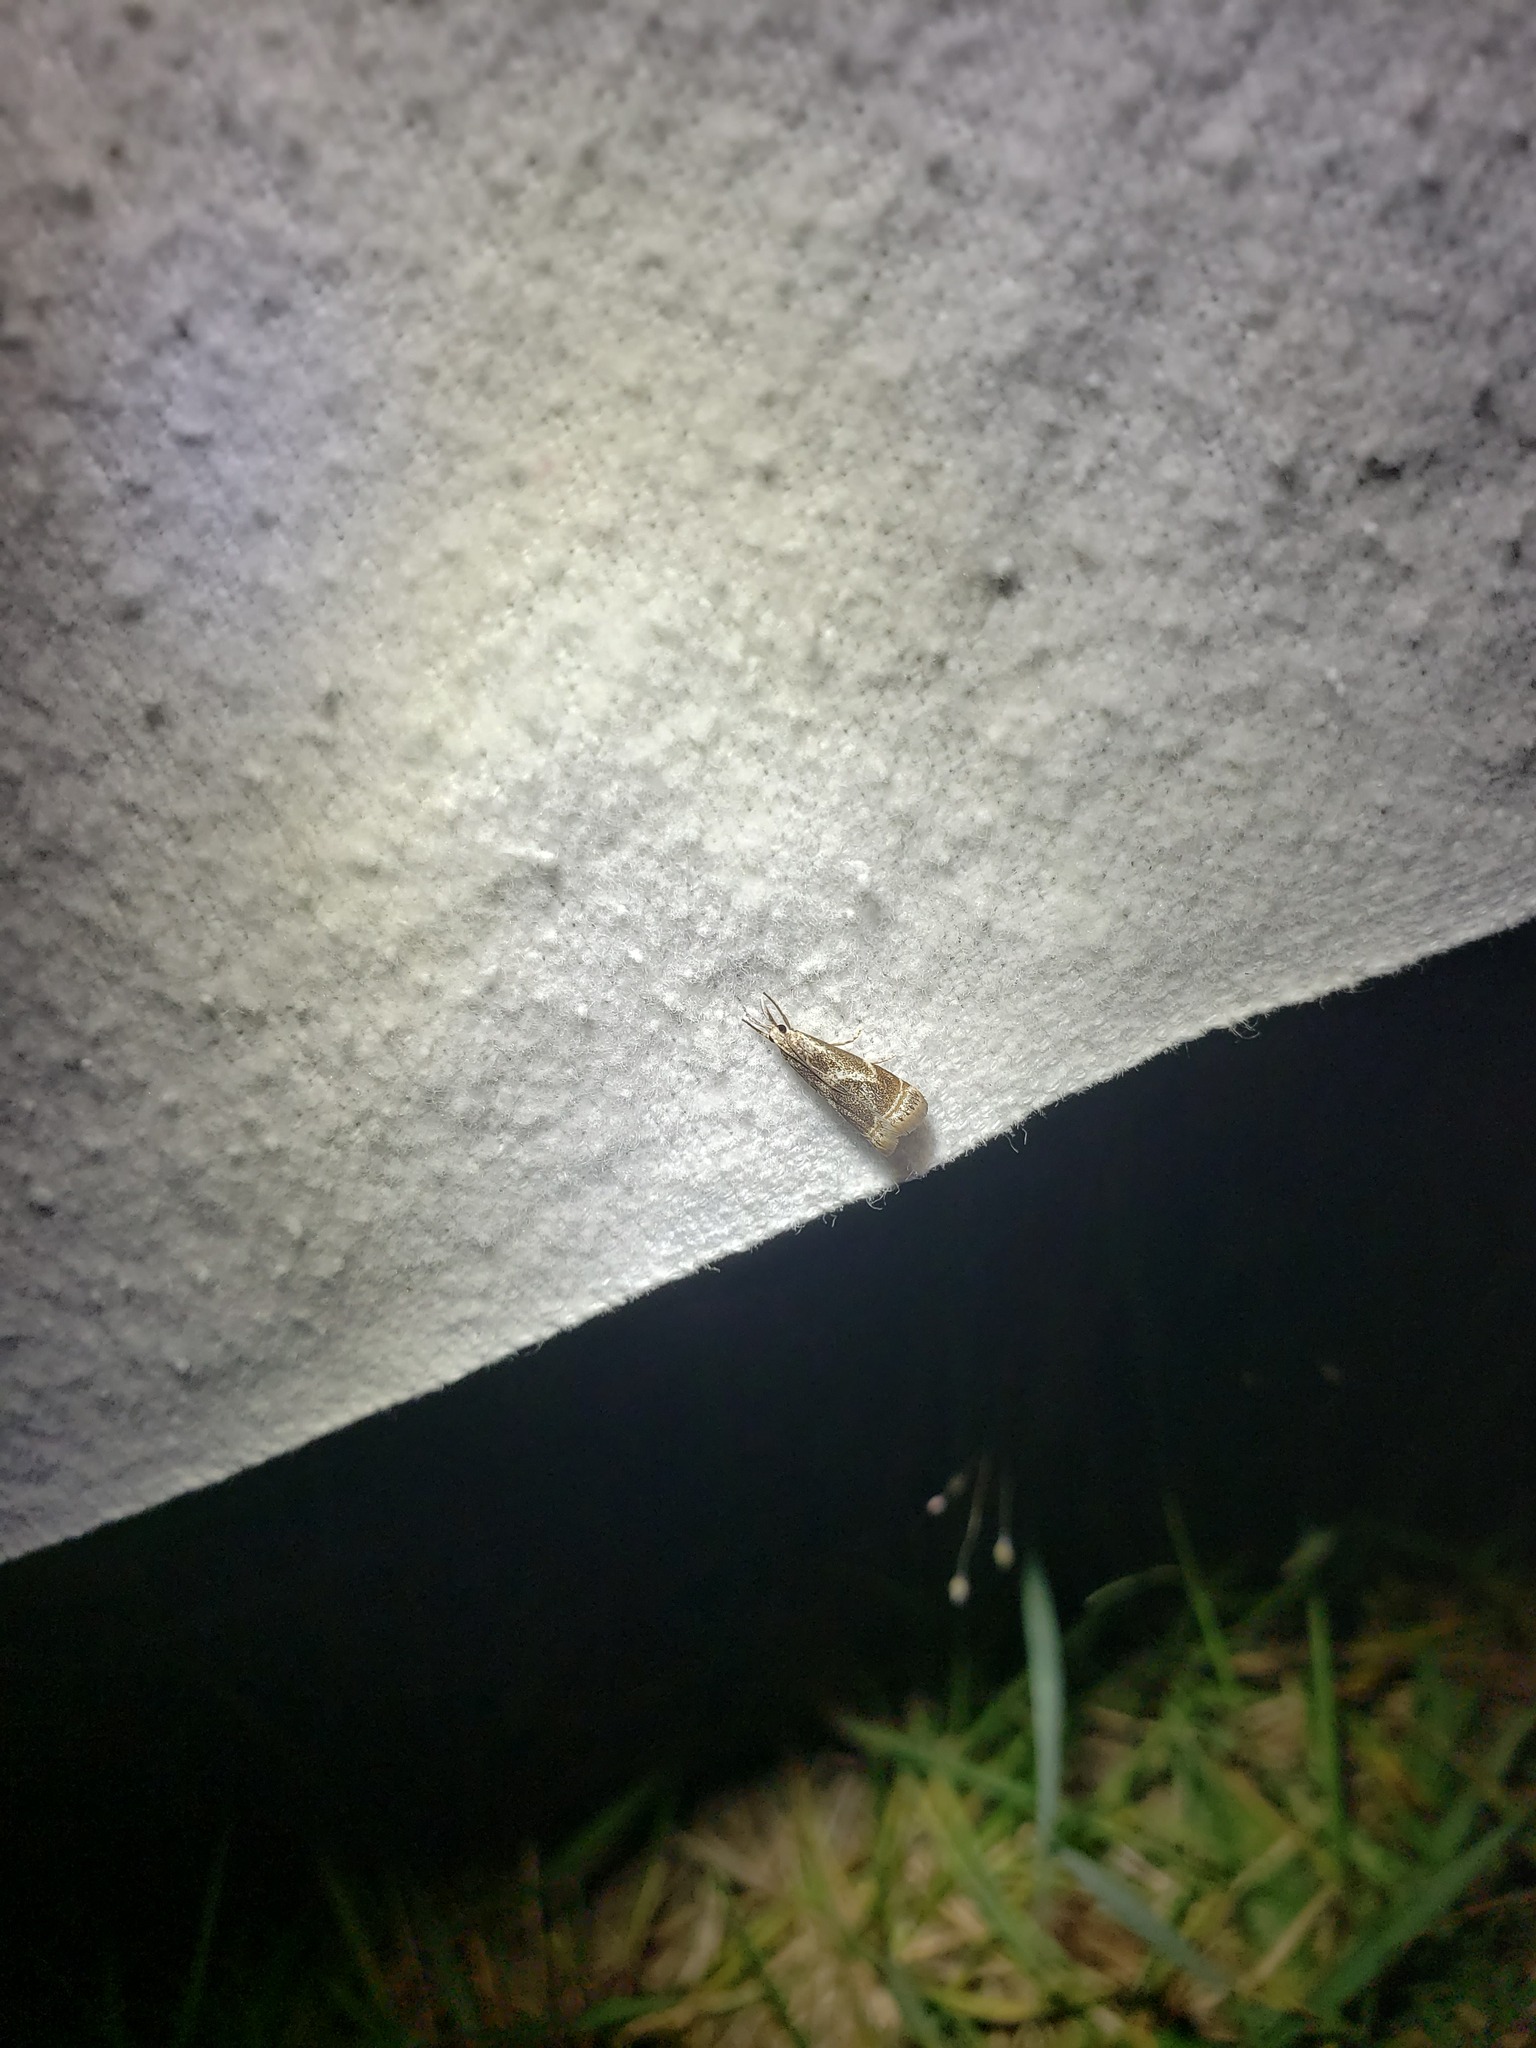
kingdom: Animalia
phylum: Arthropoda
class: Insecta
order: Lepidoptera
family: Crambidae
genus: Microcrambus
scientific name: Microcrambus elegans
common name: Elegant grass-veneer
